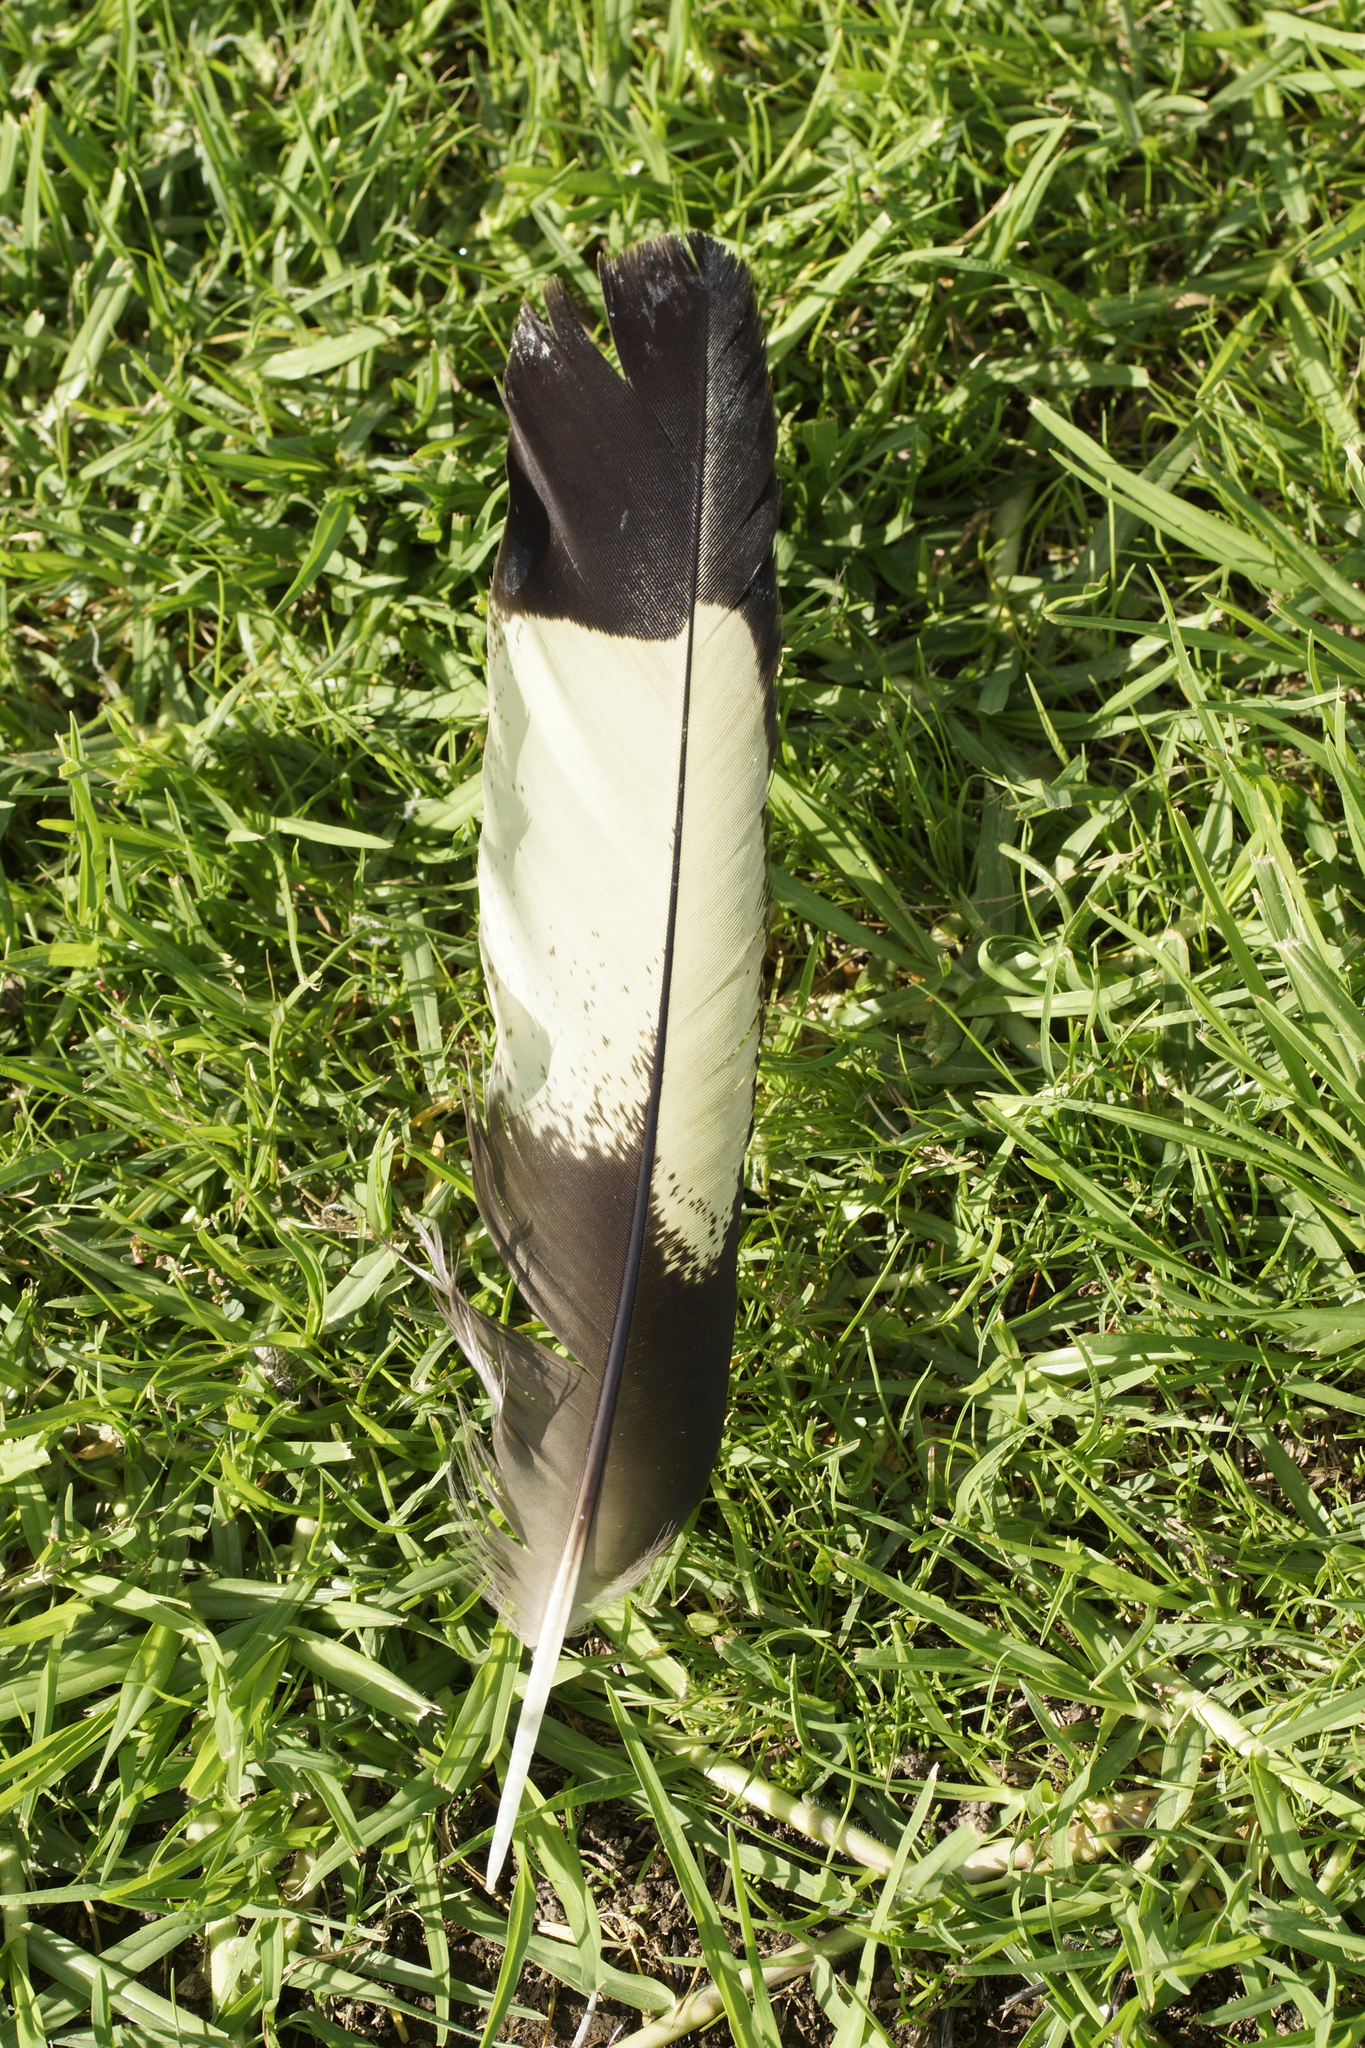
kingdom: Animalia
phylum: Chordata
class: Aves
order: Psittaciformes
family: Cacatuidae
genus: Zanda
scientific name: Zanda funerea
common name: Yellow-tailed black-cockatoo
